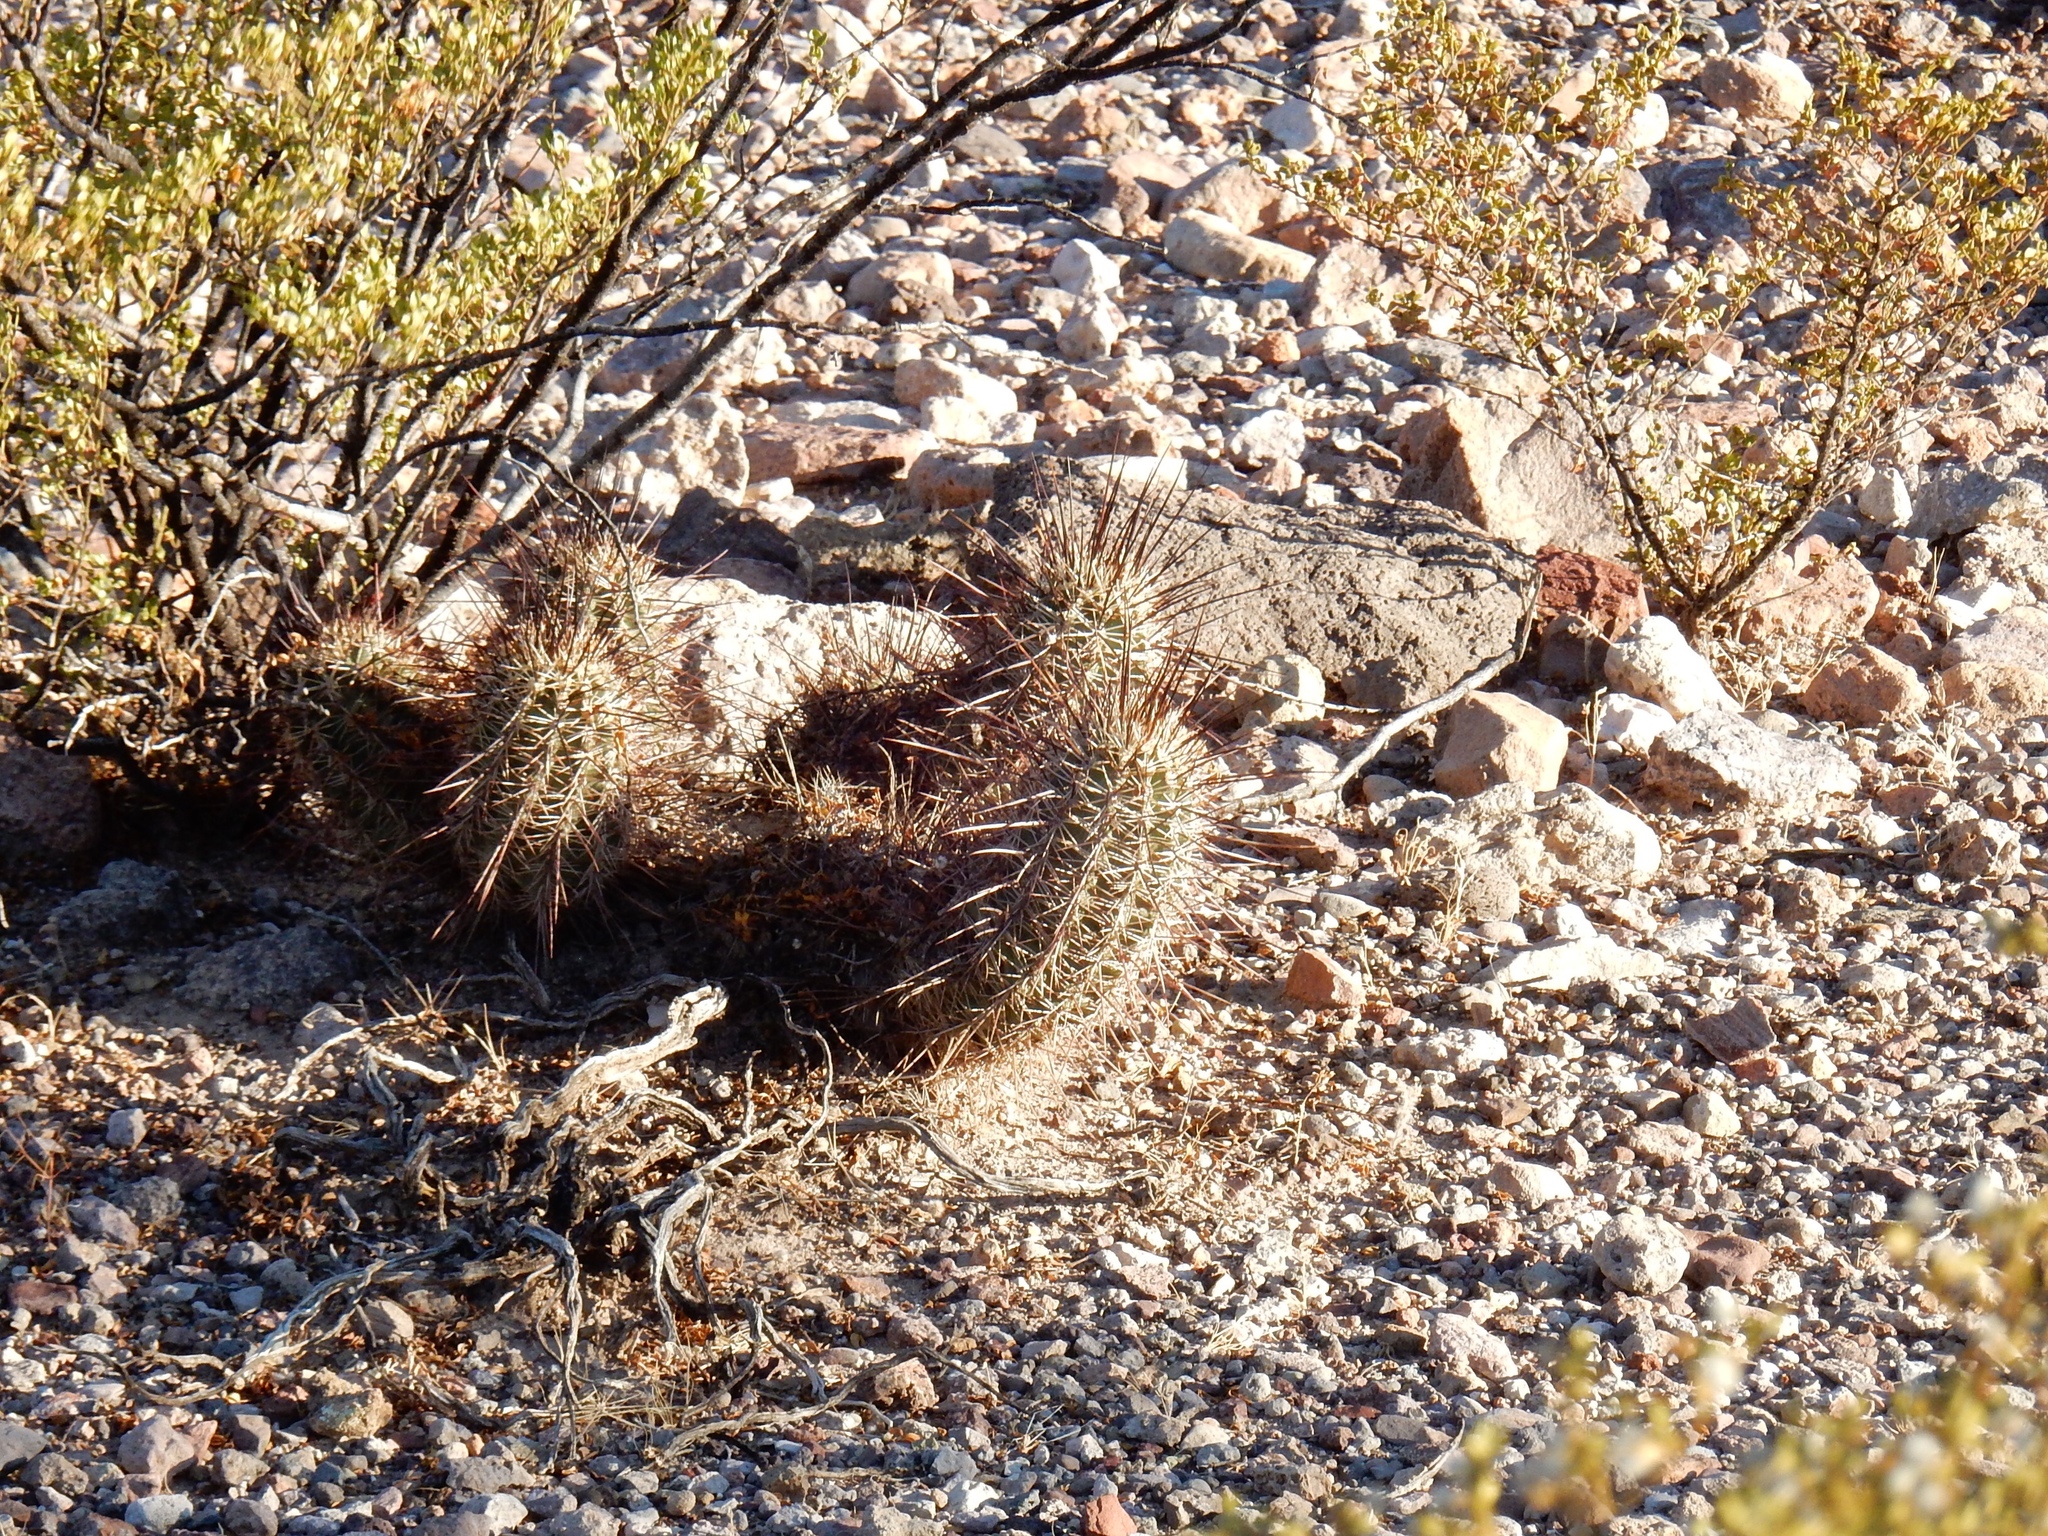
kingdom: Plantae
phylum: Tracheophyta
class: Magnoliopsida
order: Caryophyllales
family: Cactaceae
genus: Echinocereus
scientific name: Echinocereus fasciculatus
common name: Bundle hedgehog
